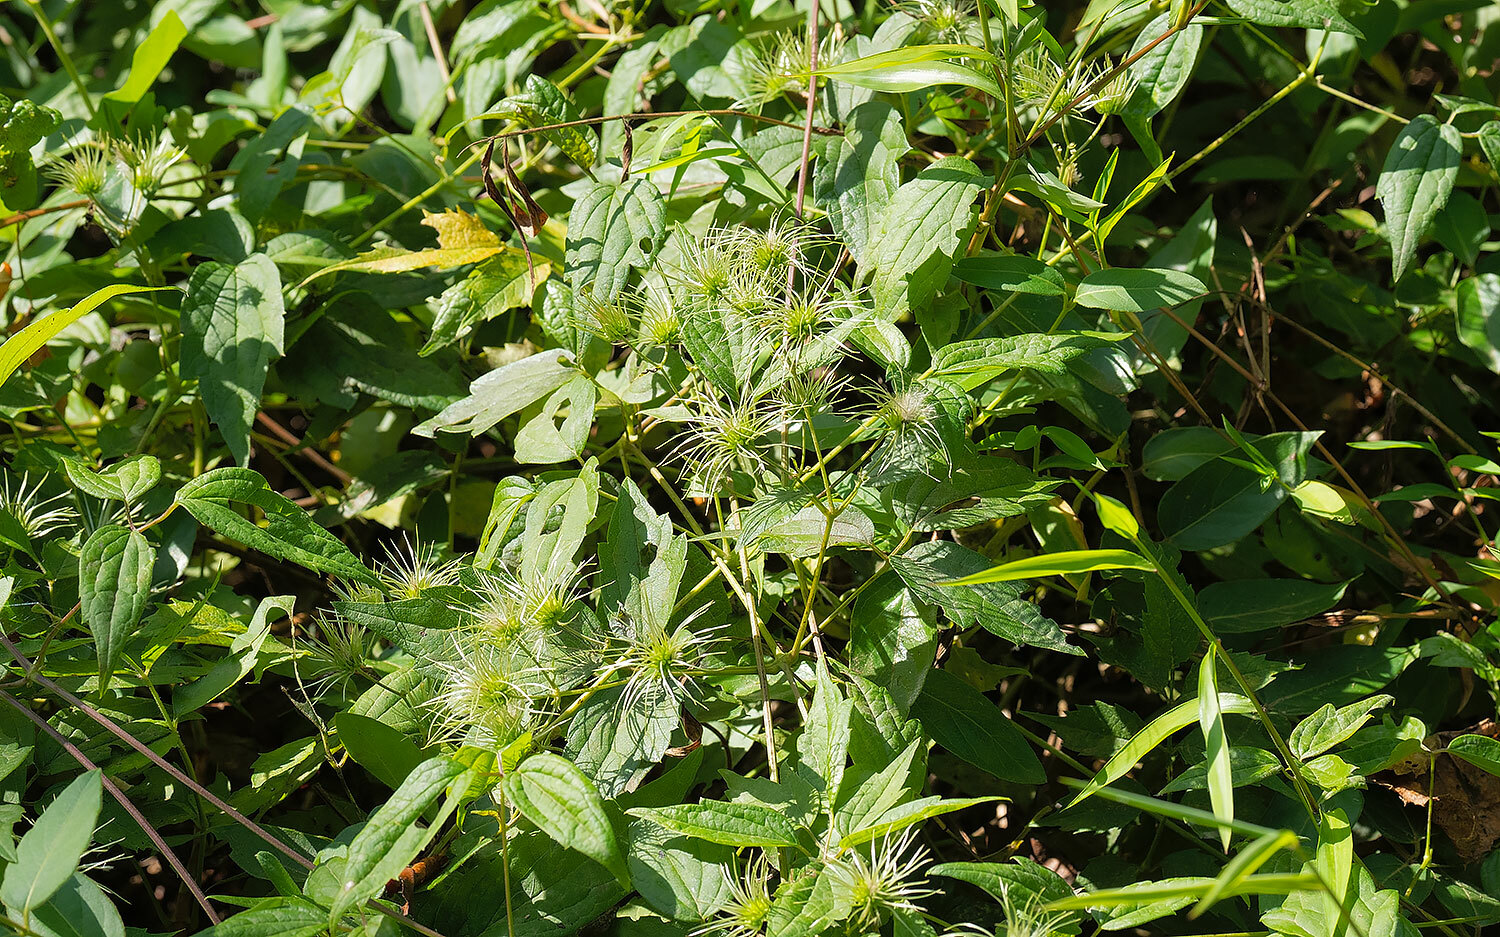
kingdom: Plantae
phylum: Tracheophyta
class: Magnoliopsida
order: Ranunculales
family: Ranunculaceae
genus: Clematis
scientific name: Clematis virginiana
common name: Virgin's-bower
